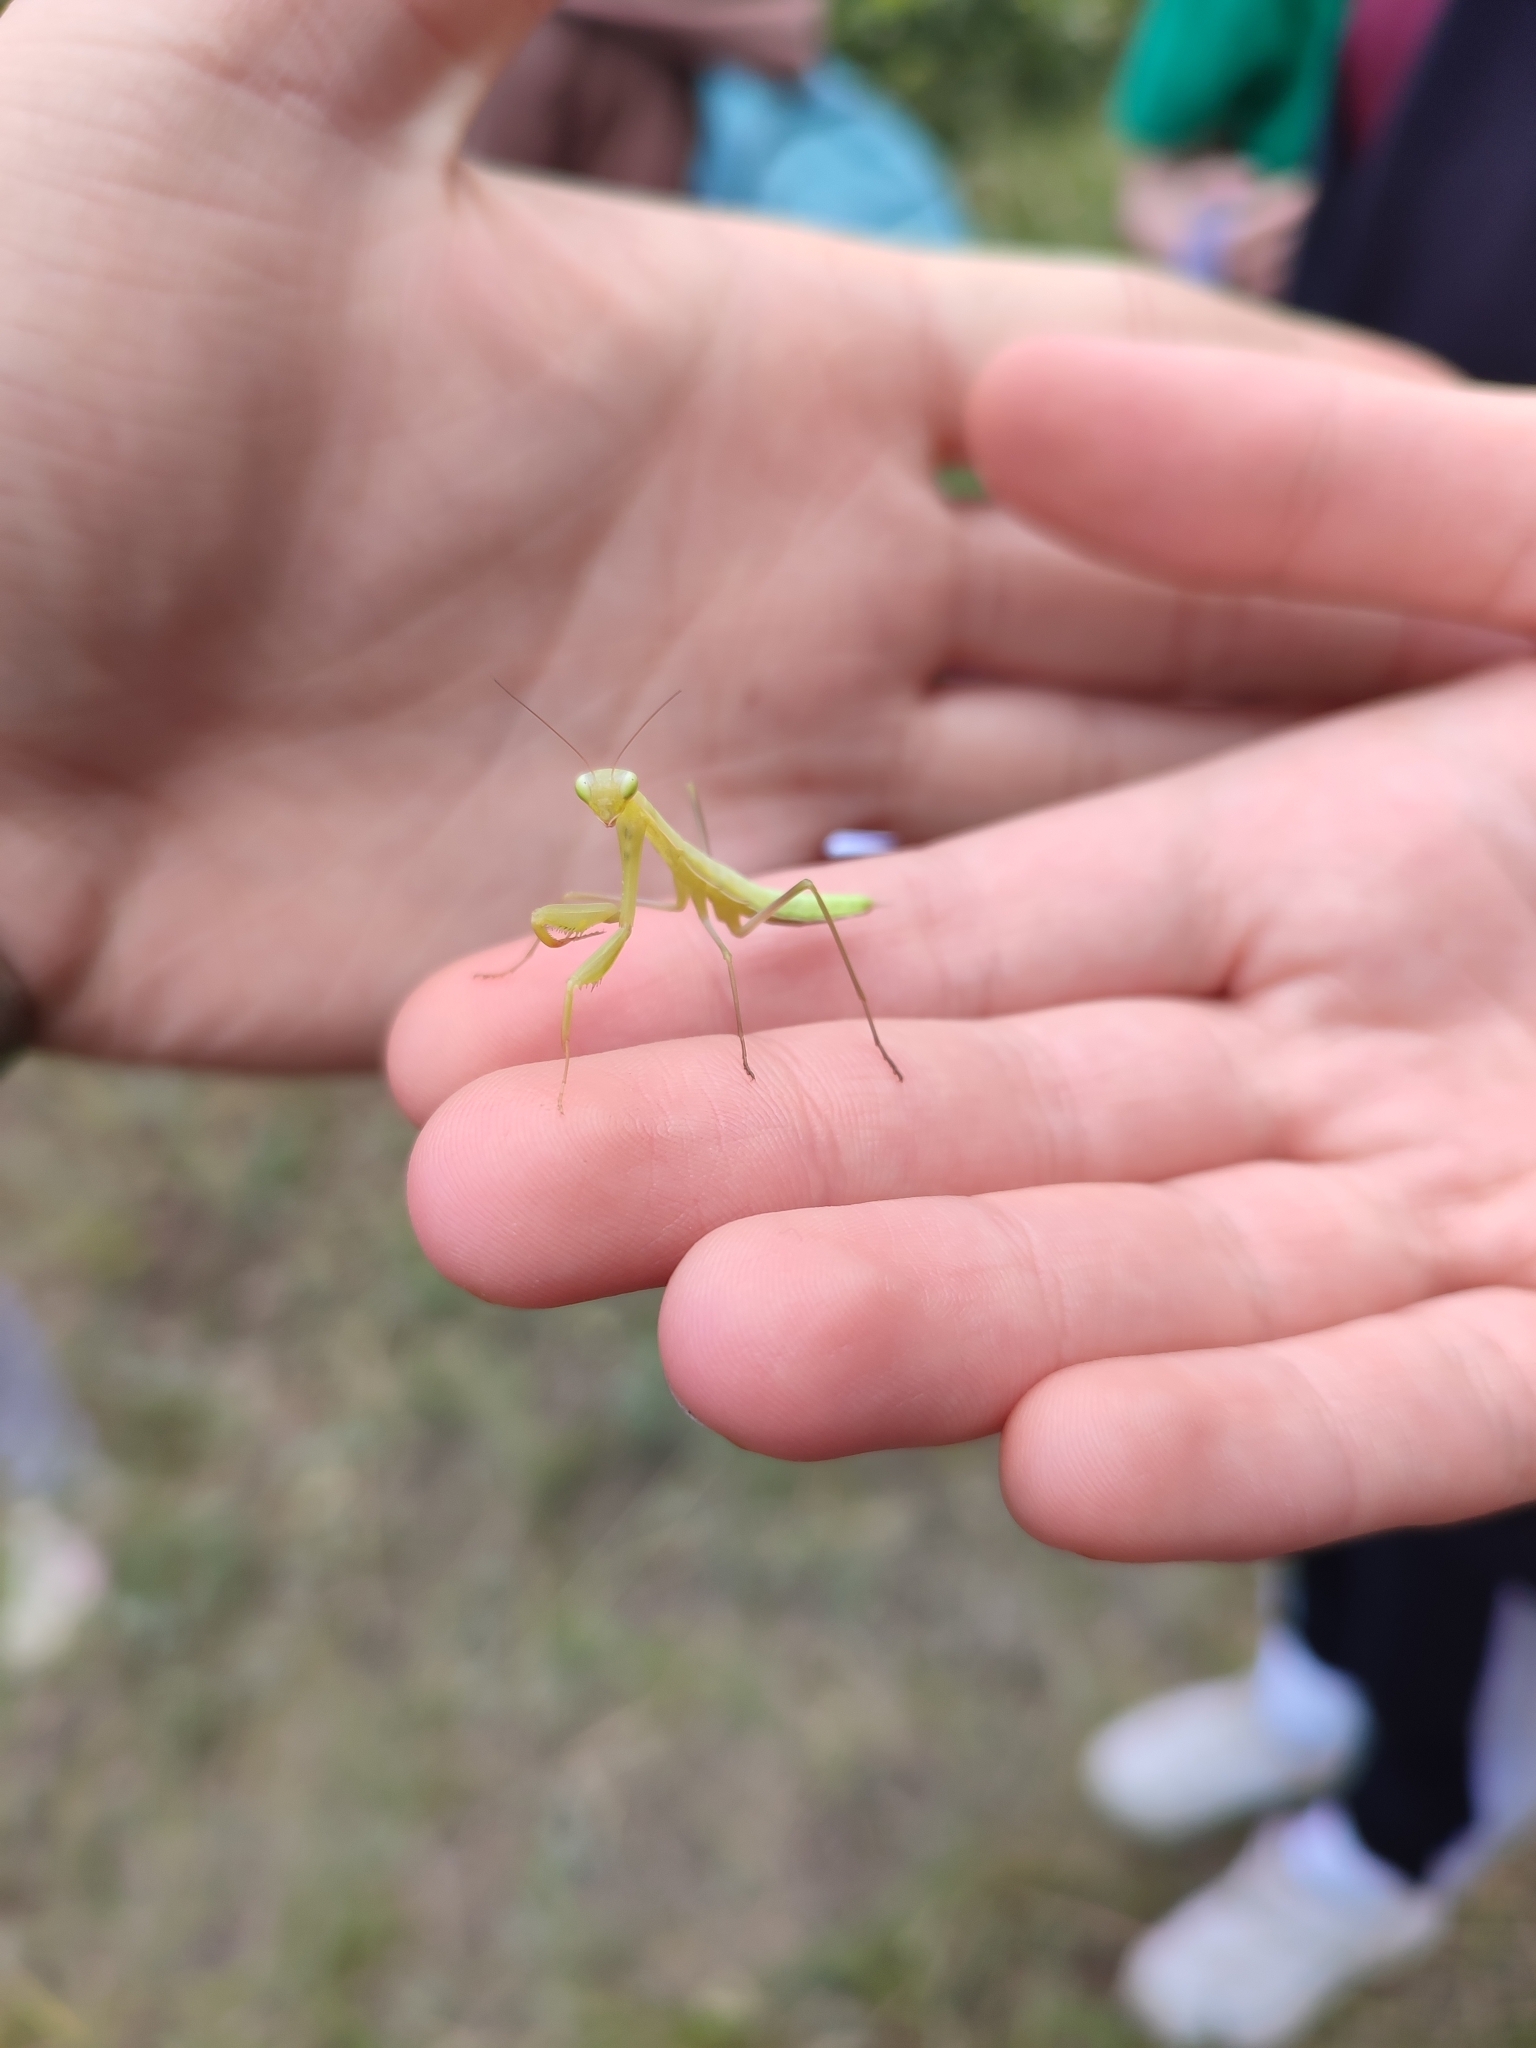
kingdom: Animalia
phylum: Arthropoda
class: Insecta
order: Mantodea
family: Mantidae
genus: Mantis
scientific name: Mantis religiosa
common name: Praying mantis
